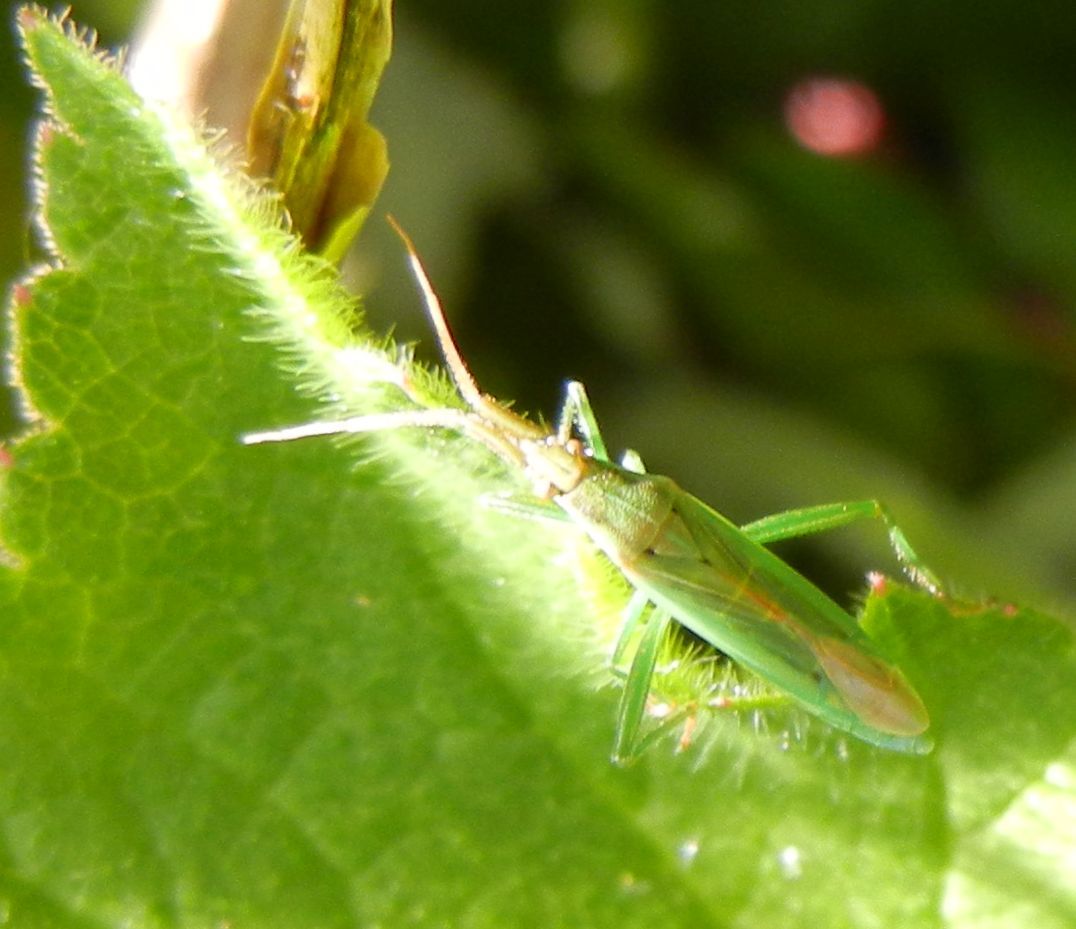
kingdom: Animalia
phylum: Arthropoda
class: Insecta
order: Hemiptera
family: Miridae
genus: Stenodema
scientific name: Stenodema laevigata
